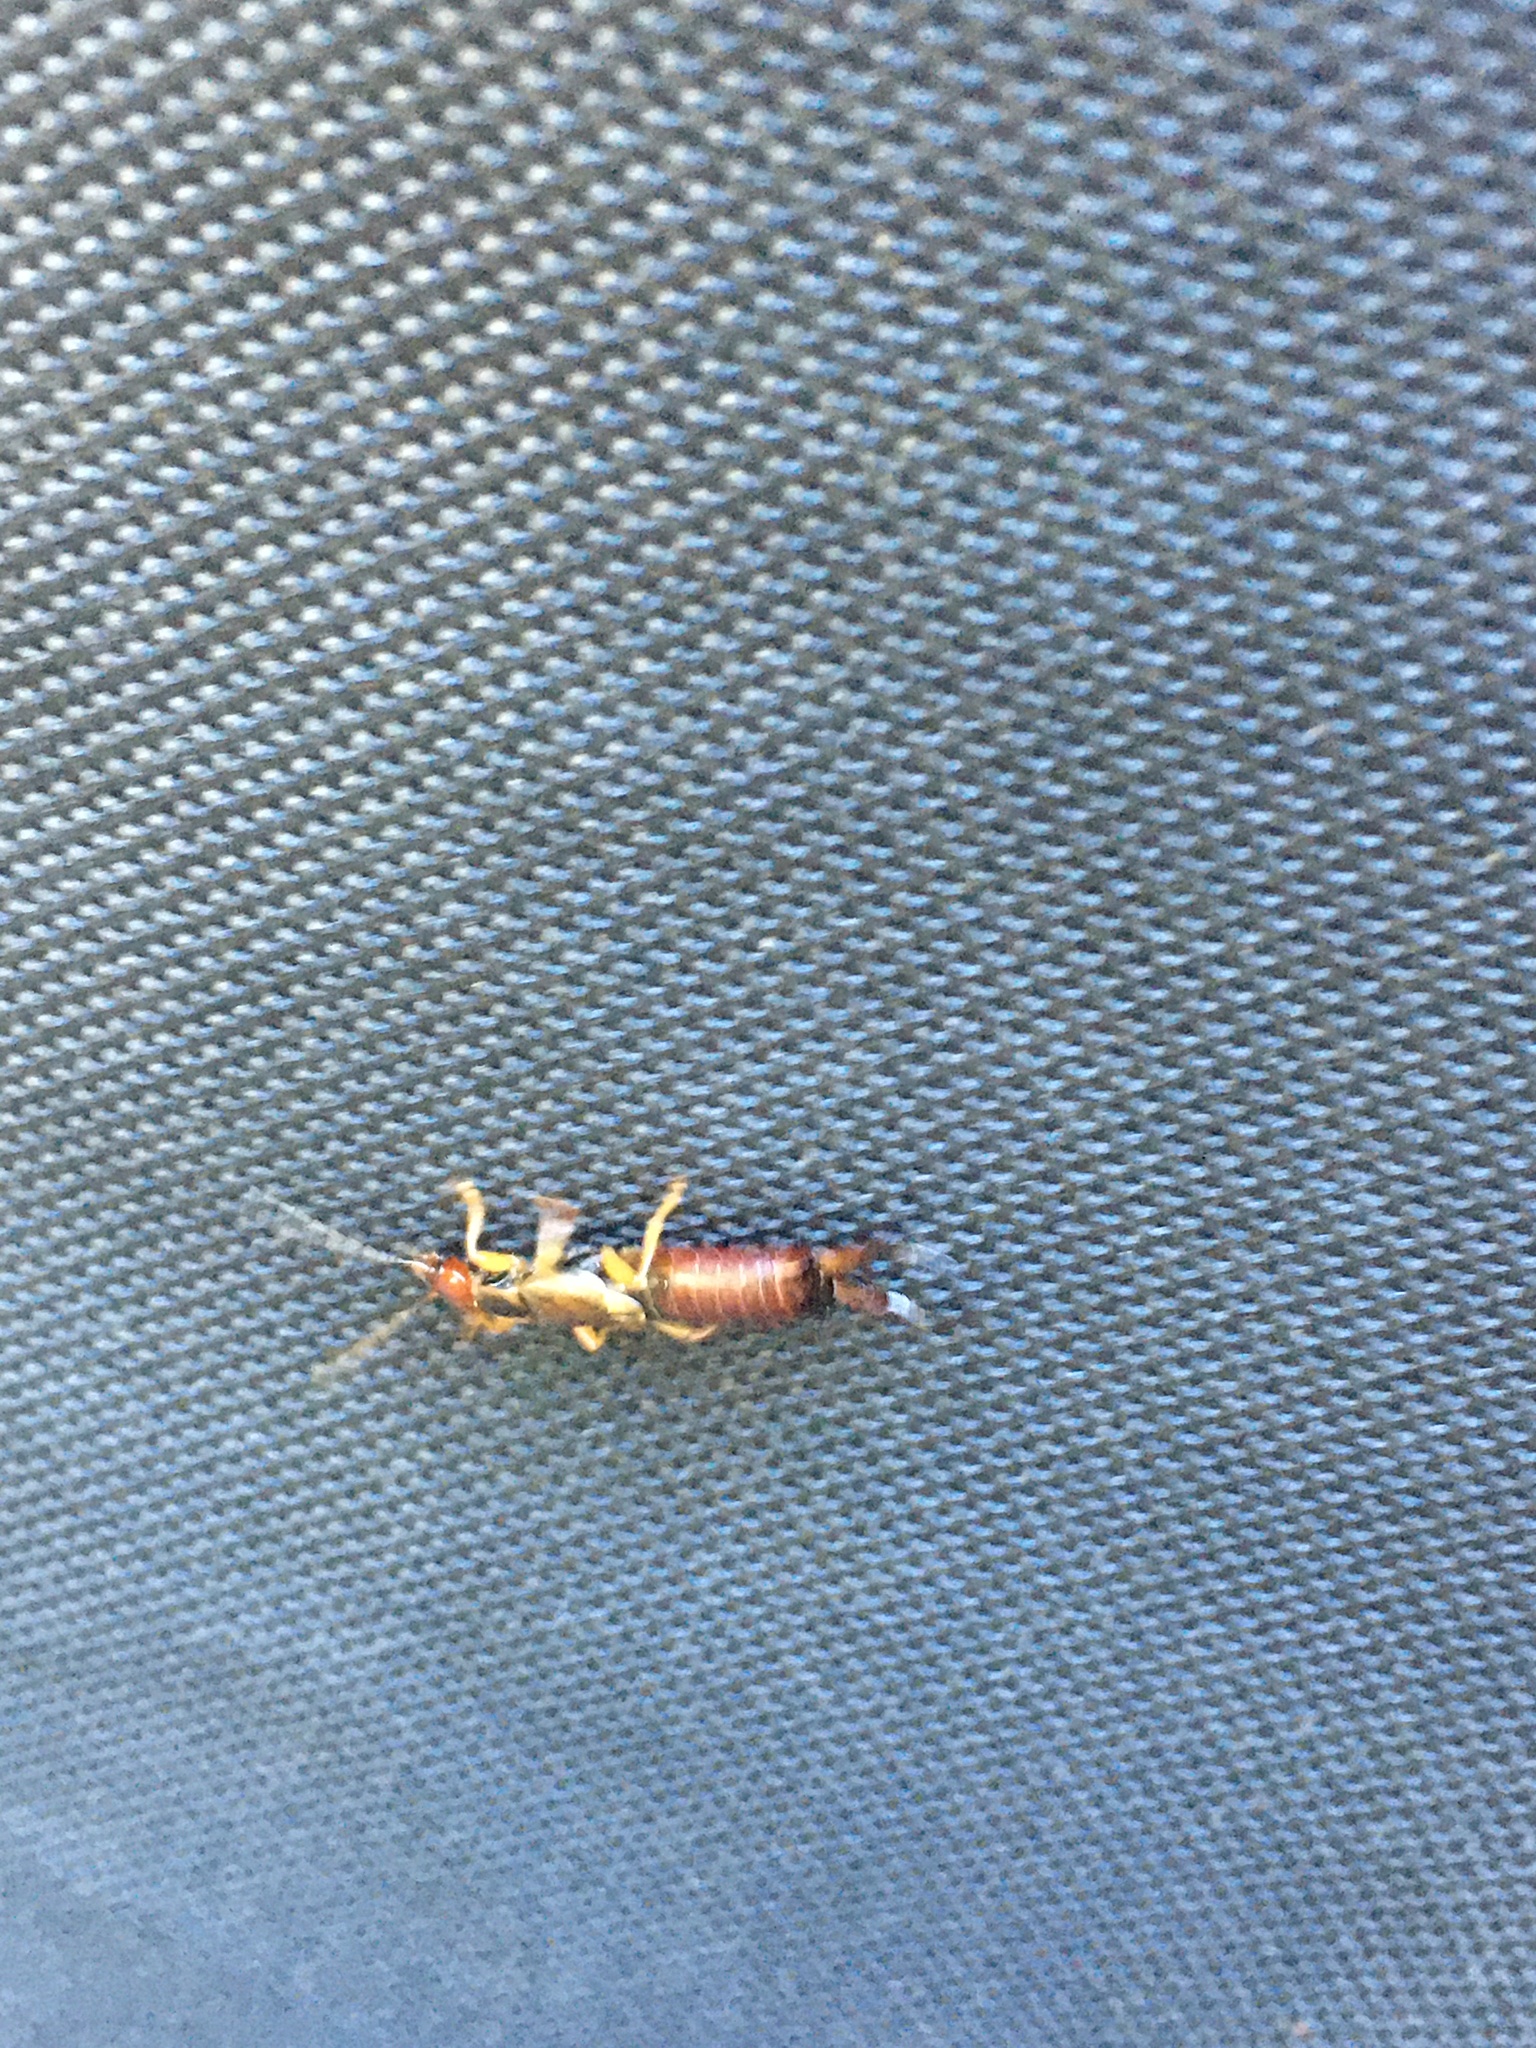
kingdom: Animalia
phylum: Arthropoda
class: Insecta
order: Dermaptera
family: Forficulidae
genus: Forficula
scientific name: Forficula
